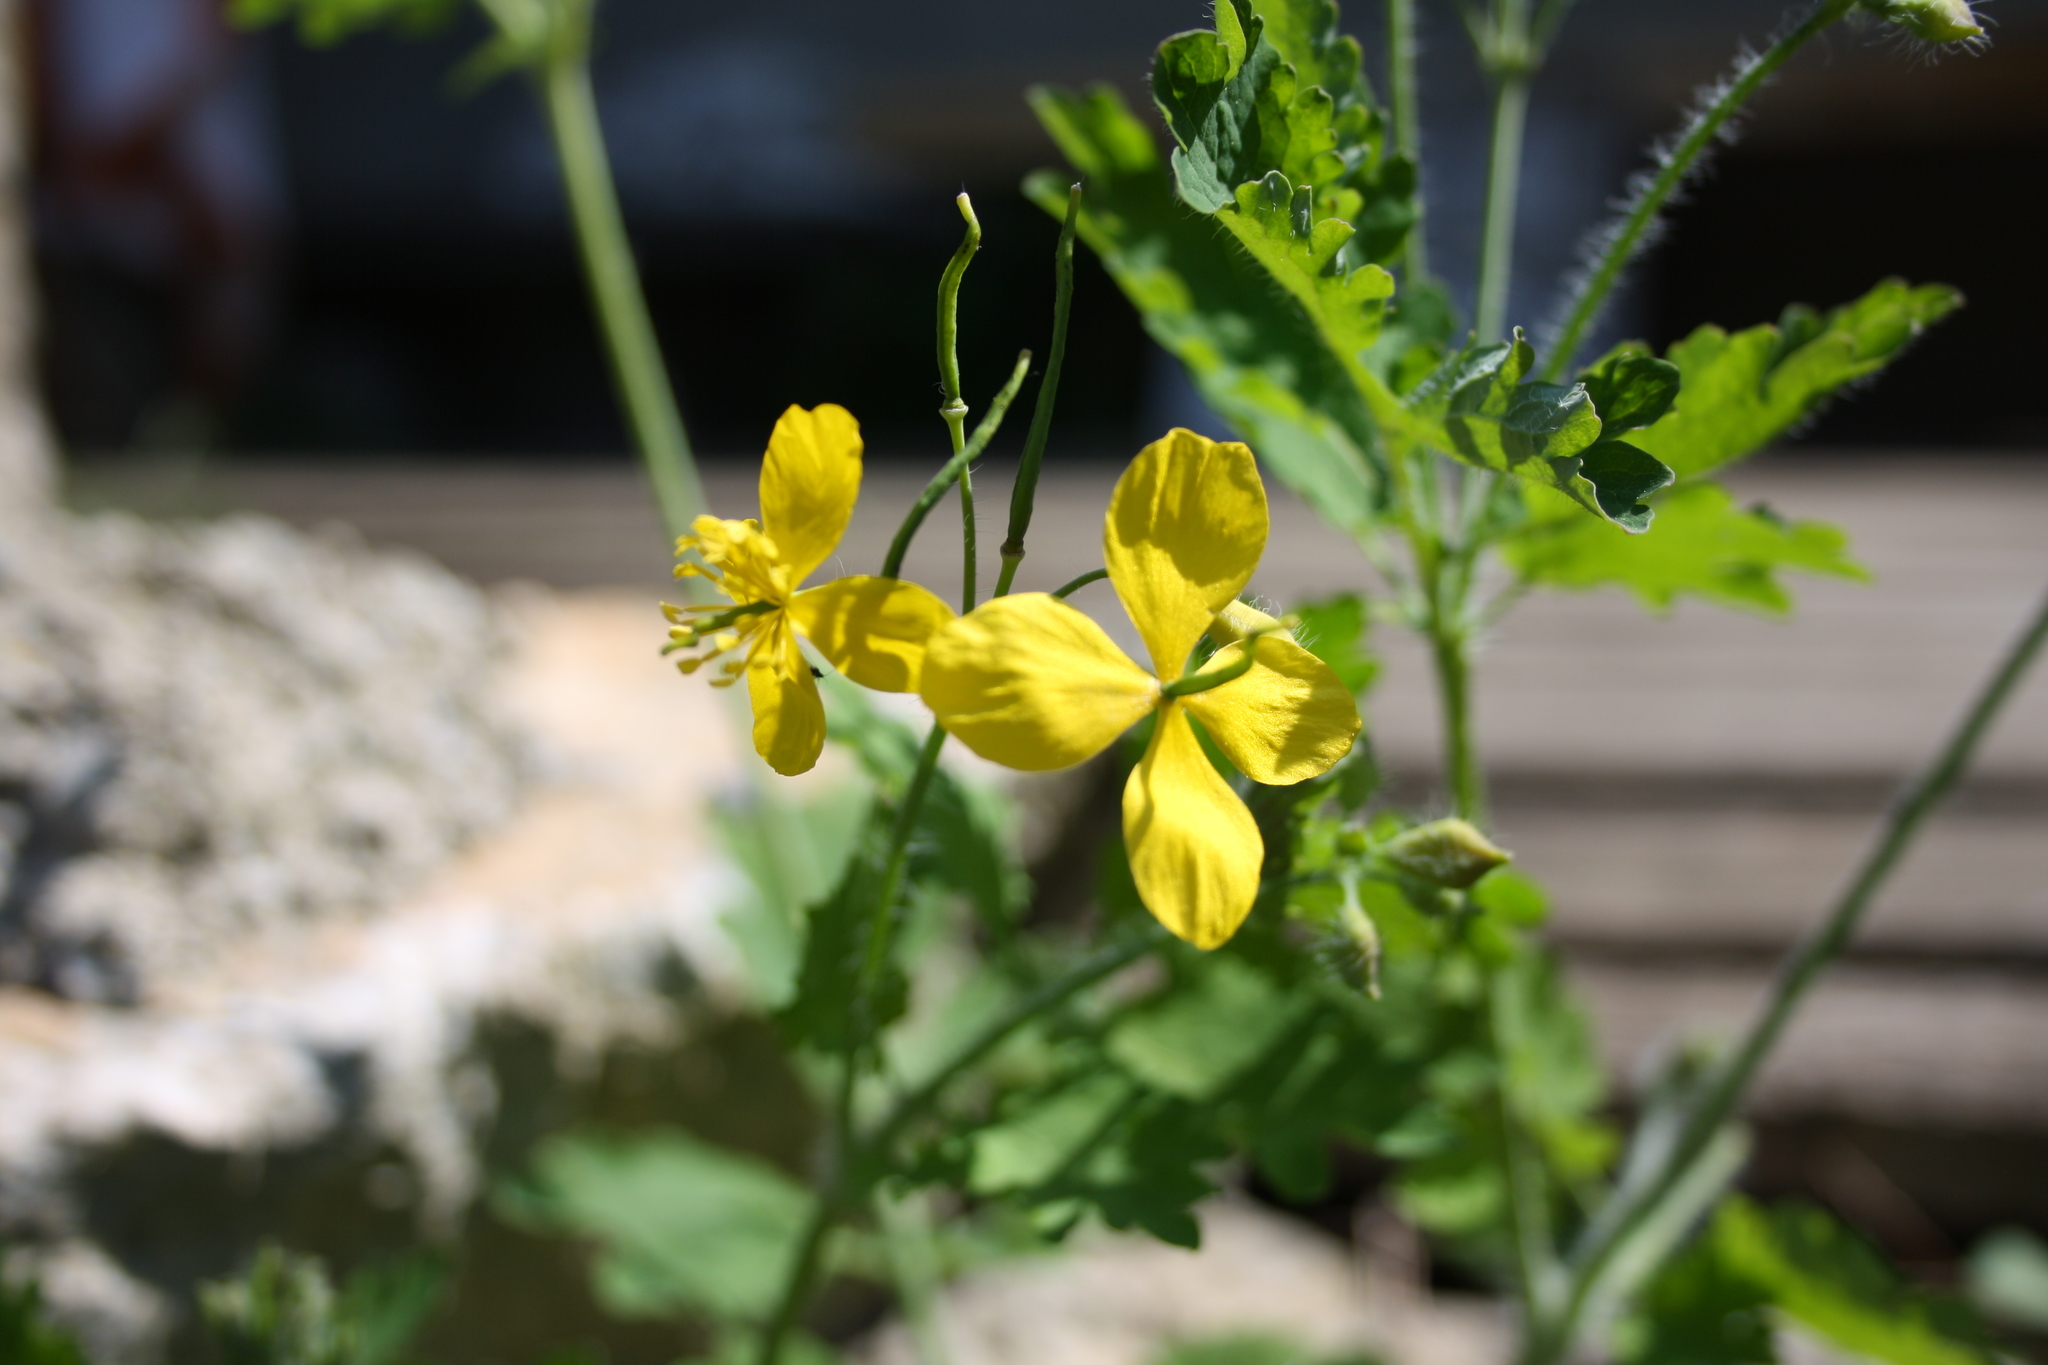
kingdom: Plantae
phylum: Tracheophyta
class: Magnoliopsida
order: Ranunculales
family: Papaveraceae
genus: Chelidonium
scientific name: Chelidonium majus
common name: Greater celandine
